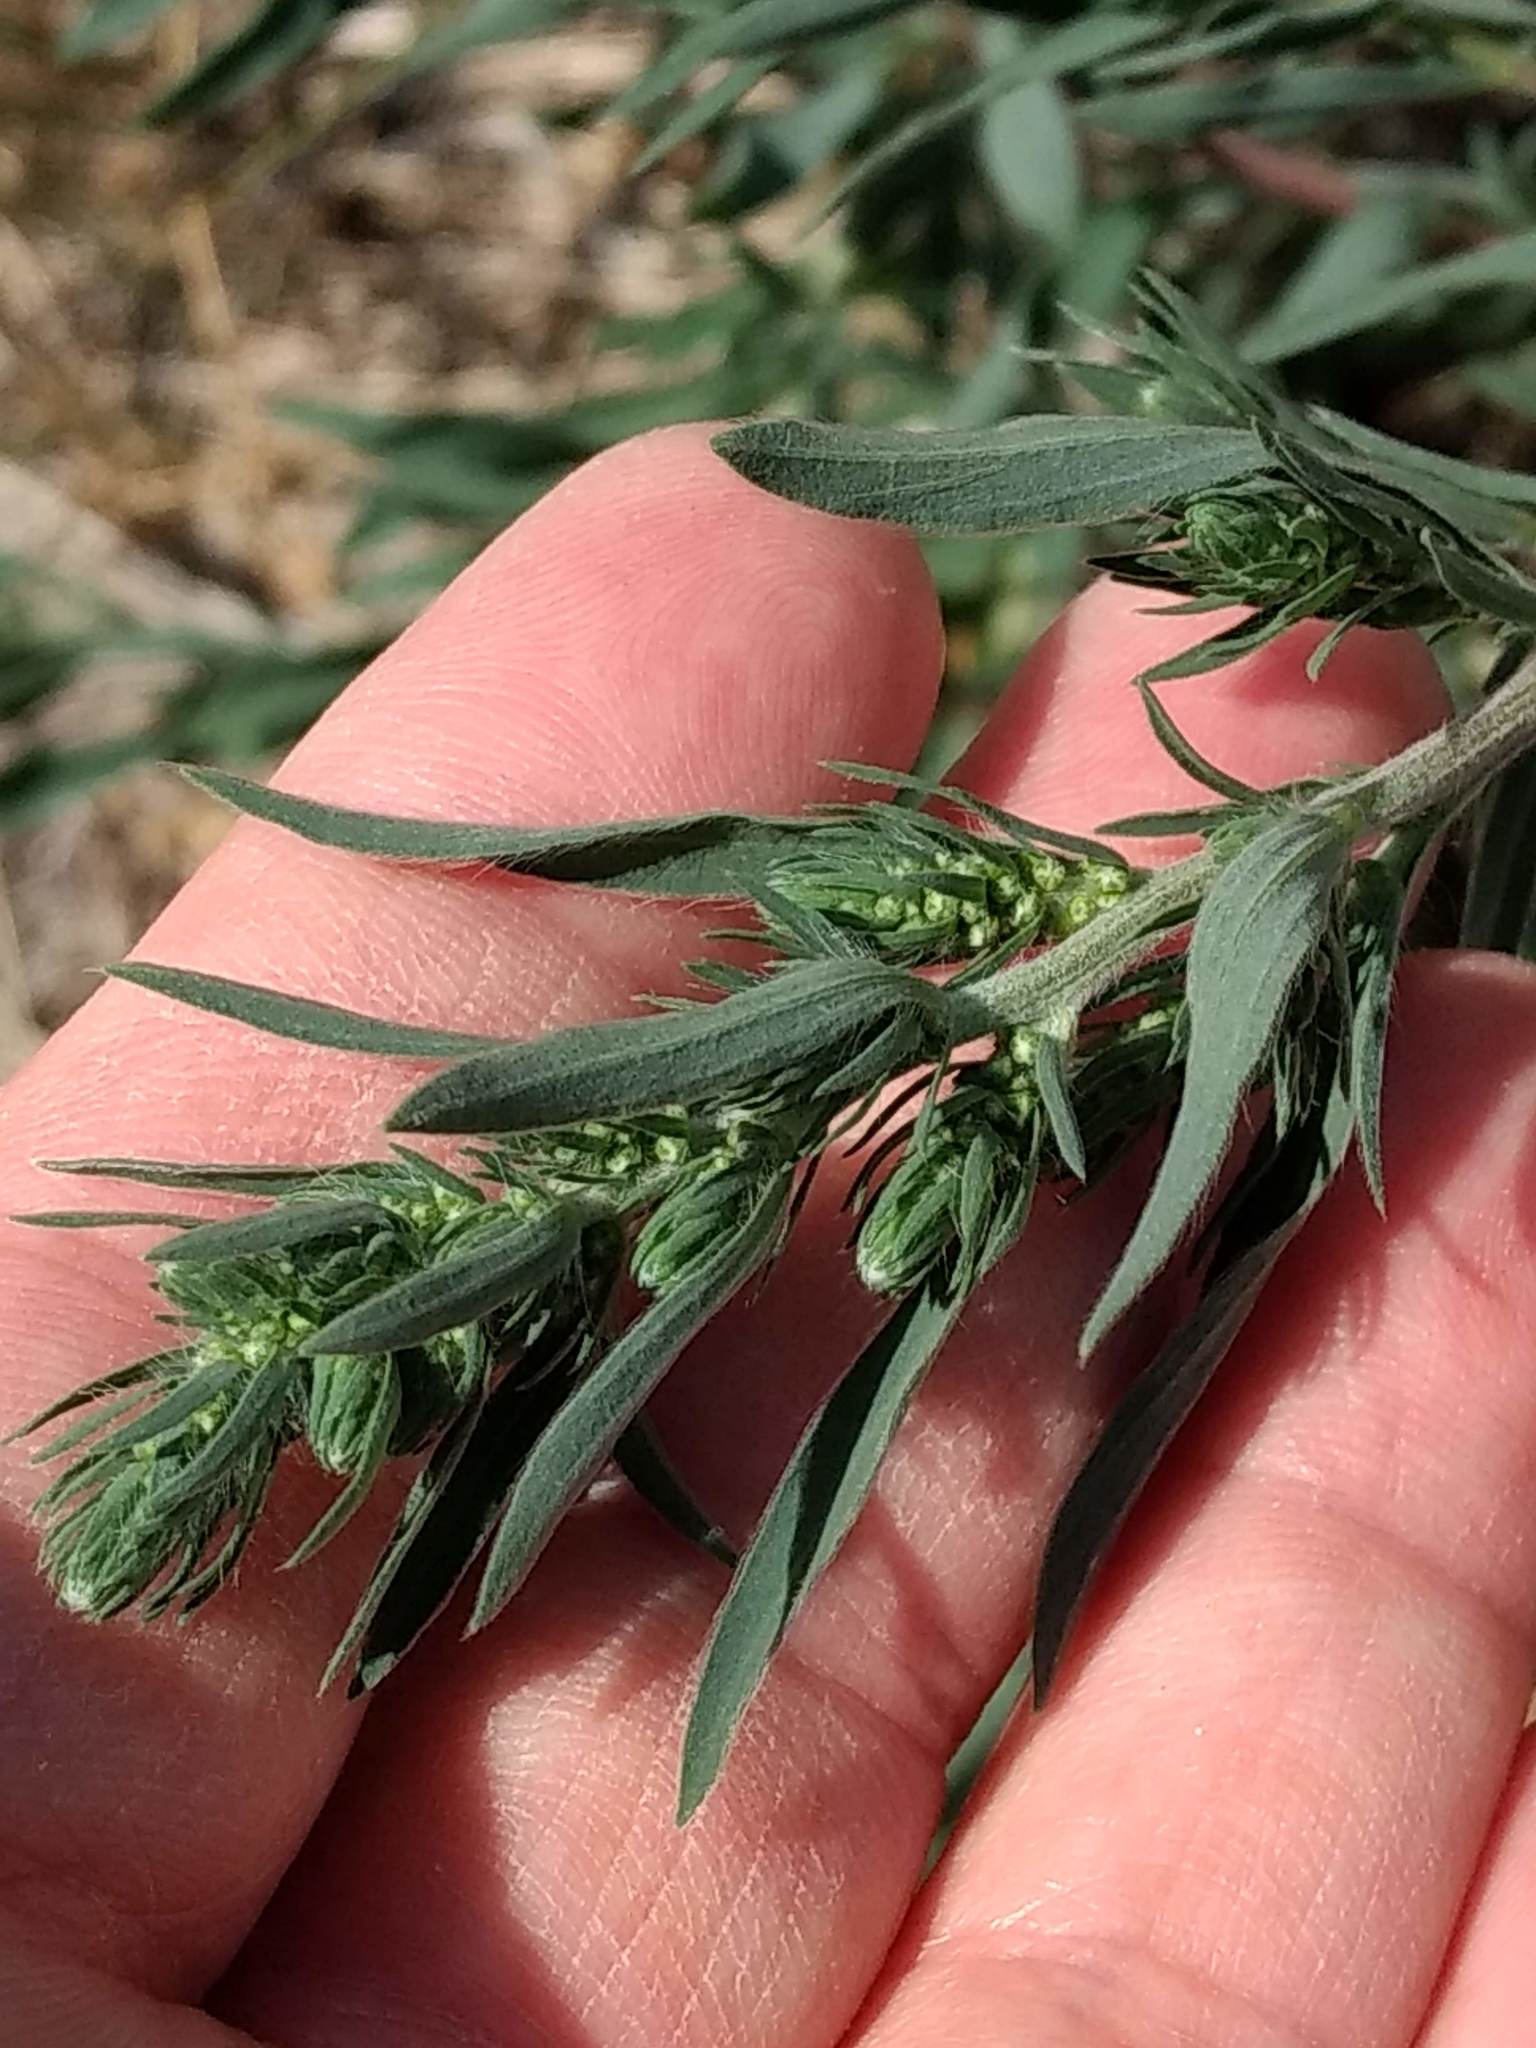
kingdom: Plantae
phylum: Tracheophyta
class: Magnoliopsida
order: Caryophyllales
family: Amaranthaceae
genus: Bassia
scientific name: Bassia scoparia
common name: Belvedere
